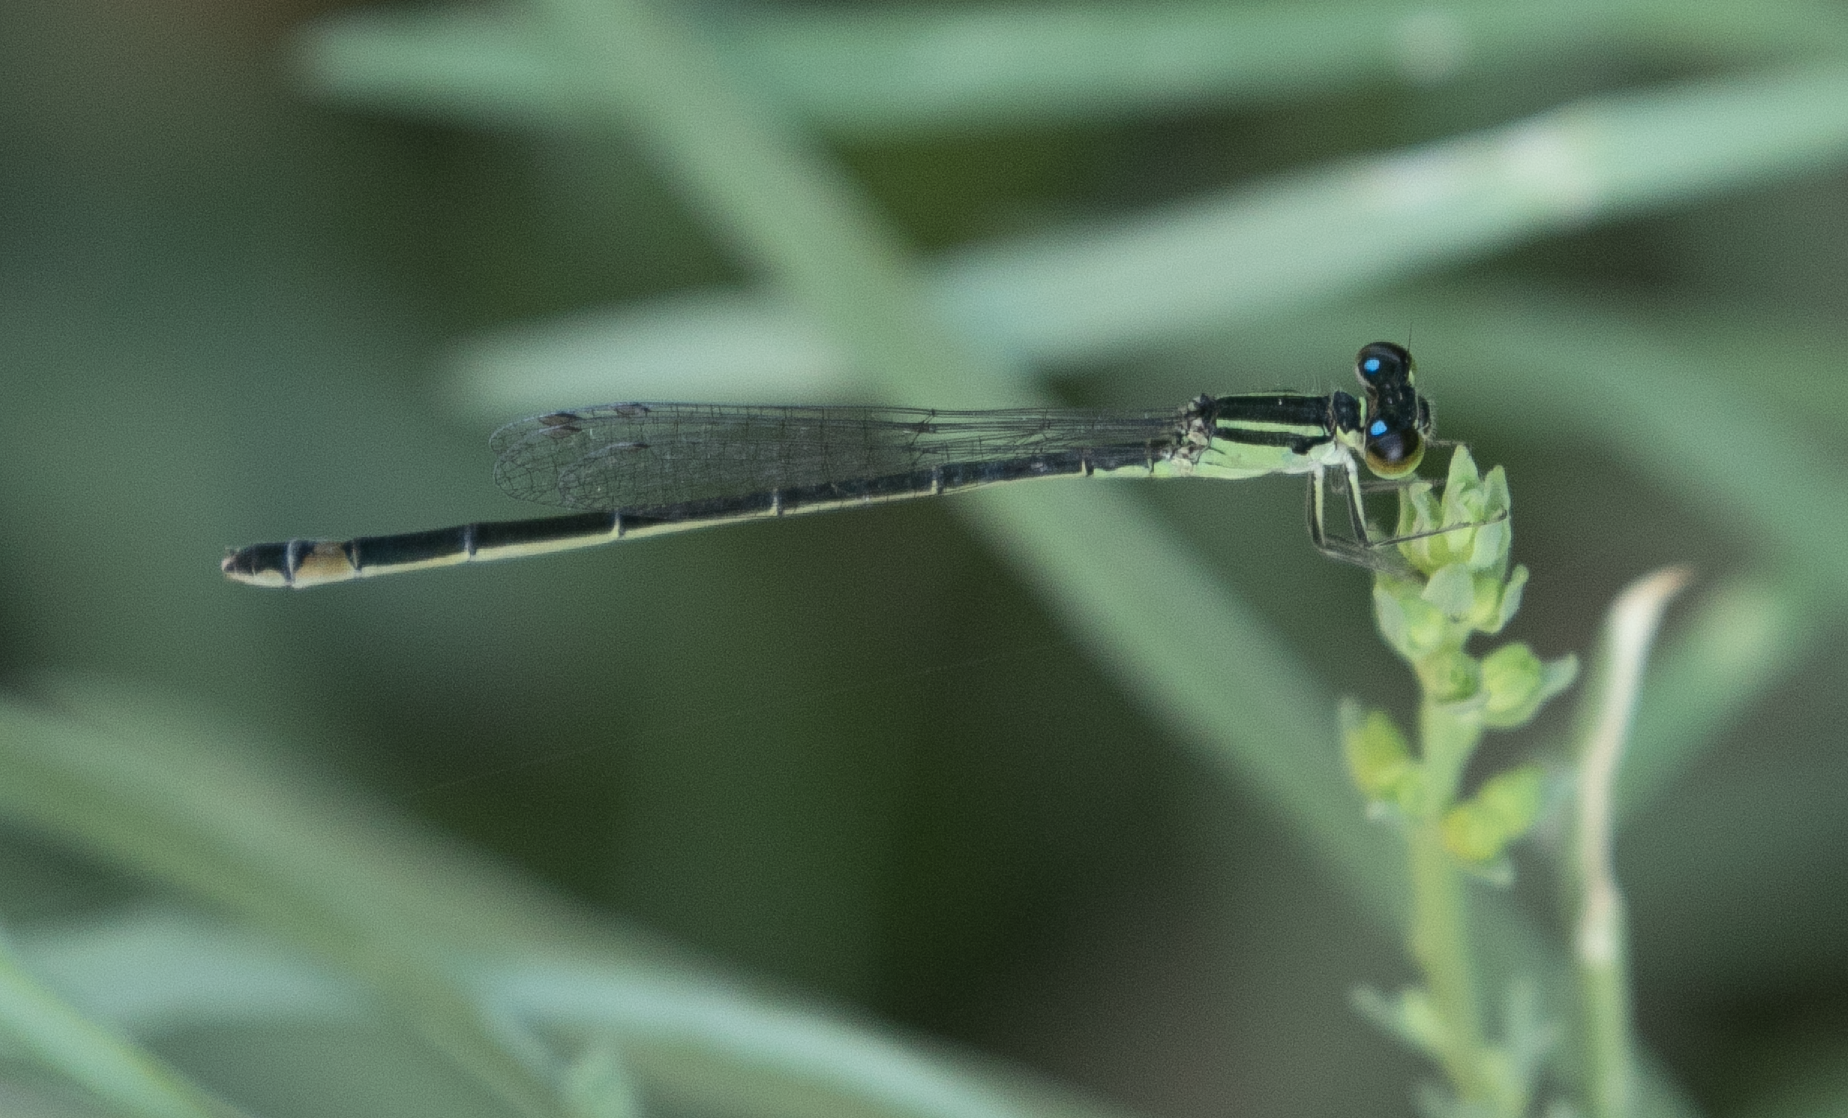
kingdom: Animalia
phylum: Arthropoda
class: Insecta
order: Odonata
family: Coenagrionidae
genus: Ischnura
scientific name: Ischnura elegans
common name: Blue-tailed damselfly
